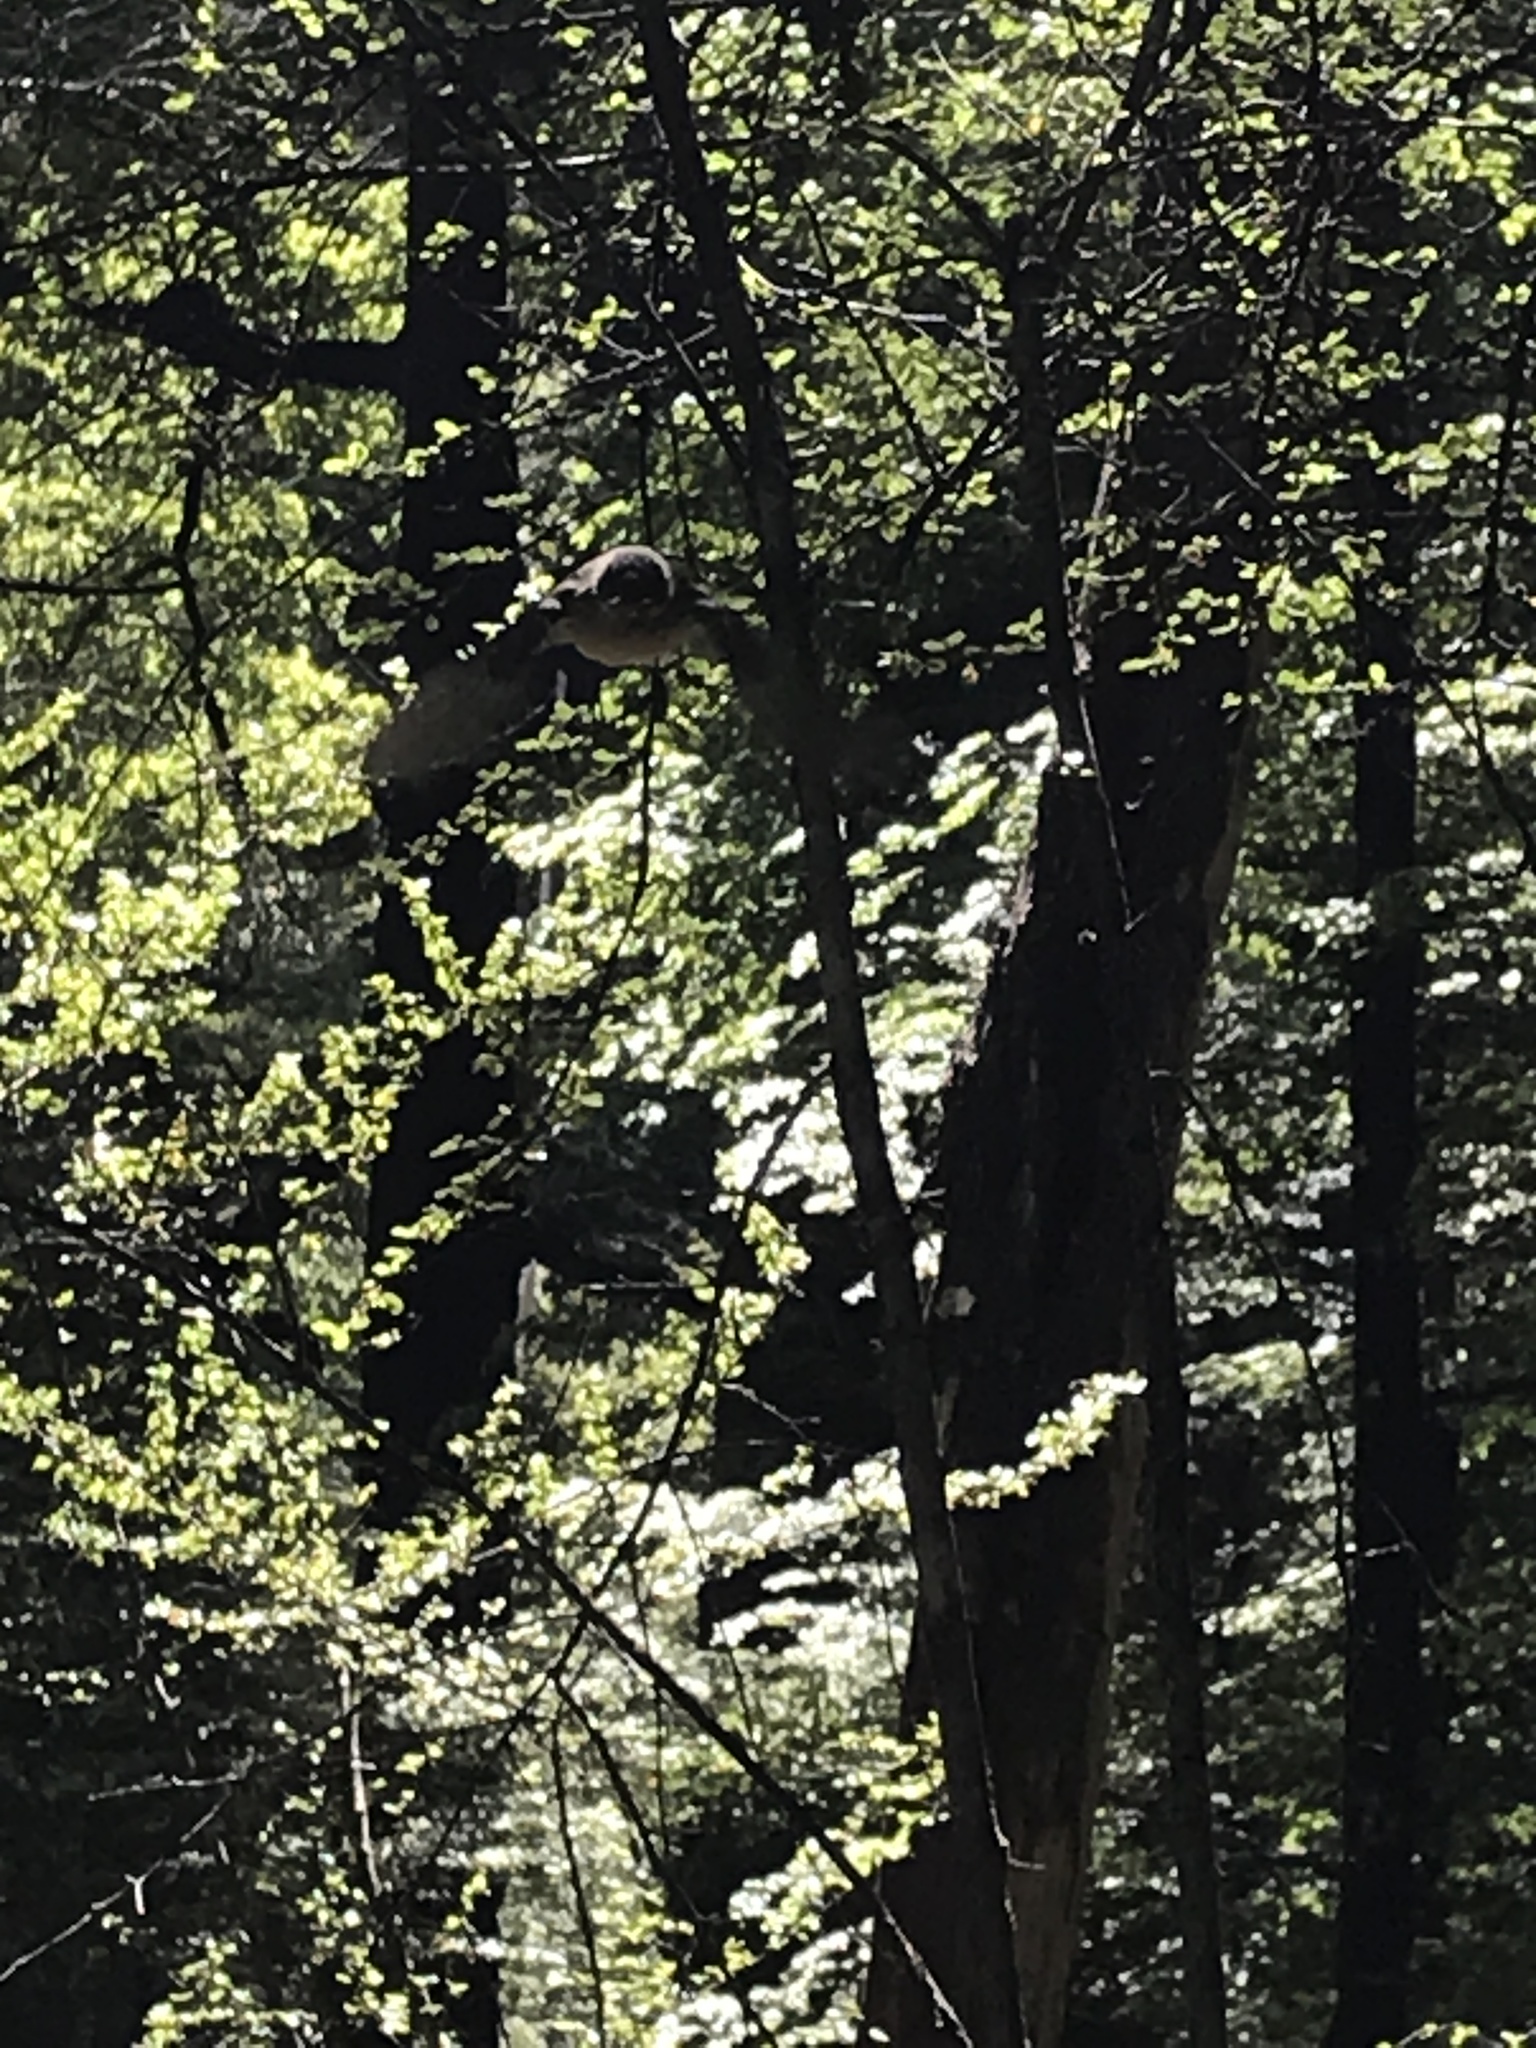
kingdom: Animalia
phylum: Chordata
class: Aves
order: Passeriformes
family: Rhipiduridae
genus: Rhipidura
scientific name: Rhipidura fuliginosa
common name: New zealand fantail
